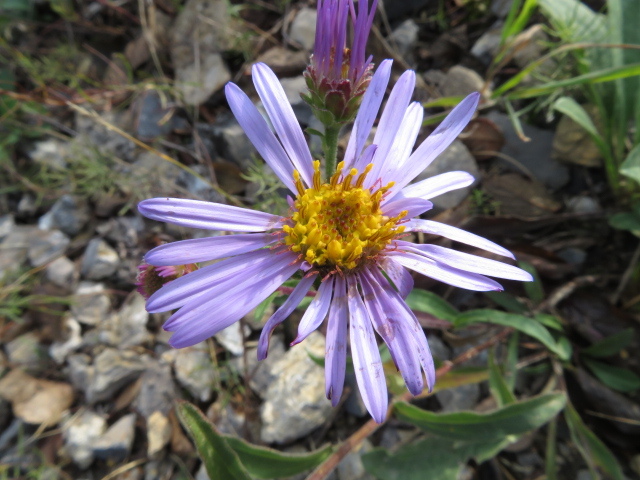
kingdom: Plantae
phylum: Tracheophyta
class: Magnoliopsida
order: Asterales
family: Asteraceae
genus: Aster
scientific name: Aster amellus
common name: European michaelmas daisy
